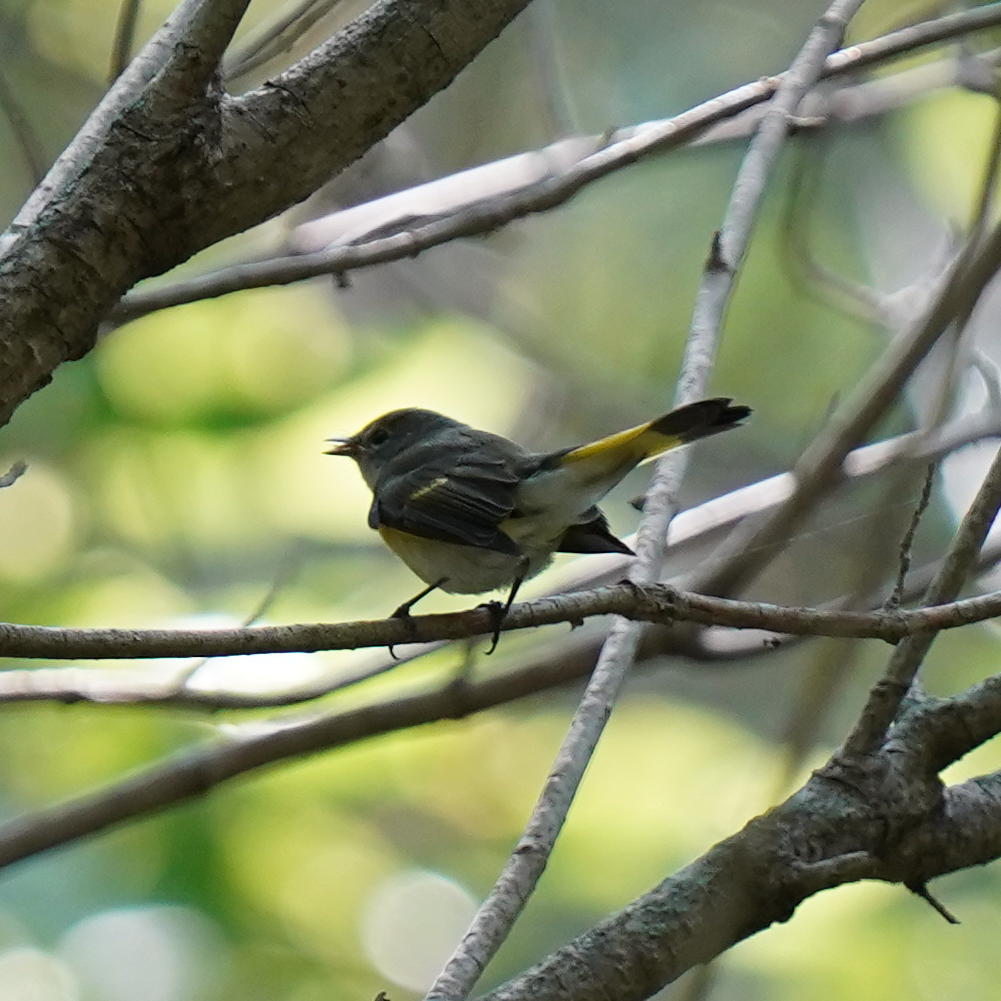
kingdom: Animalia
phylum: Chordata
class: Aves
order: Passeriformes
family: Parulidae
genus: Setophaga
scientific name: Setophaga ruticilla
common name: American redstart
